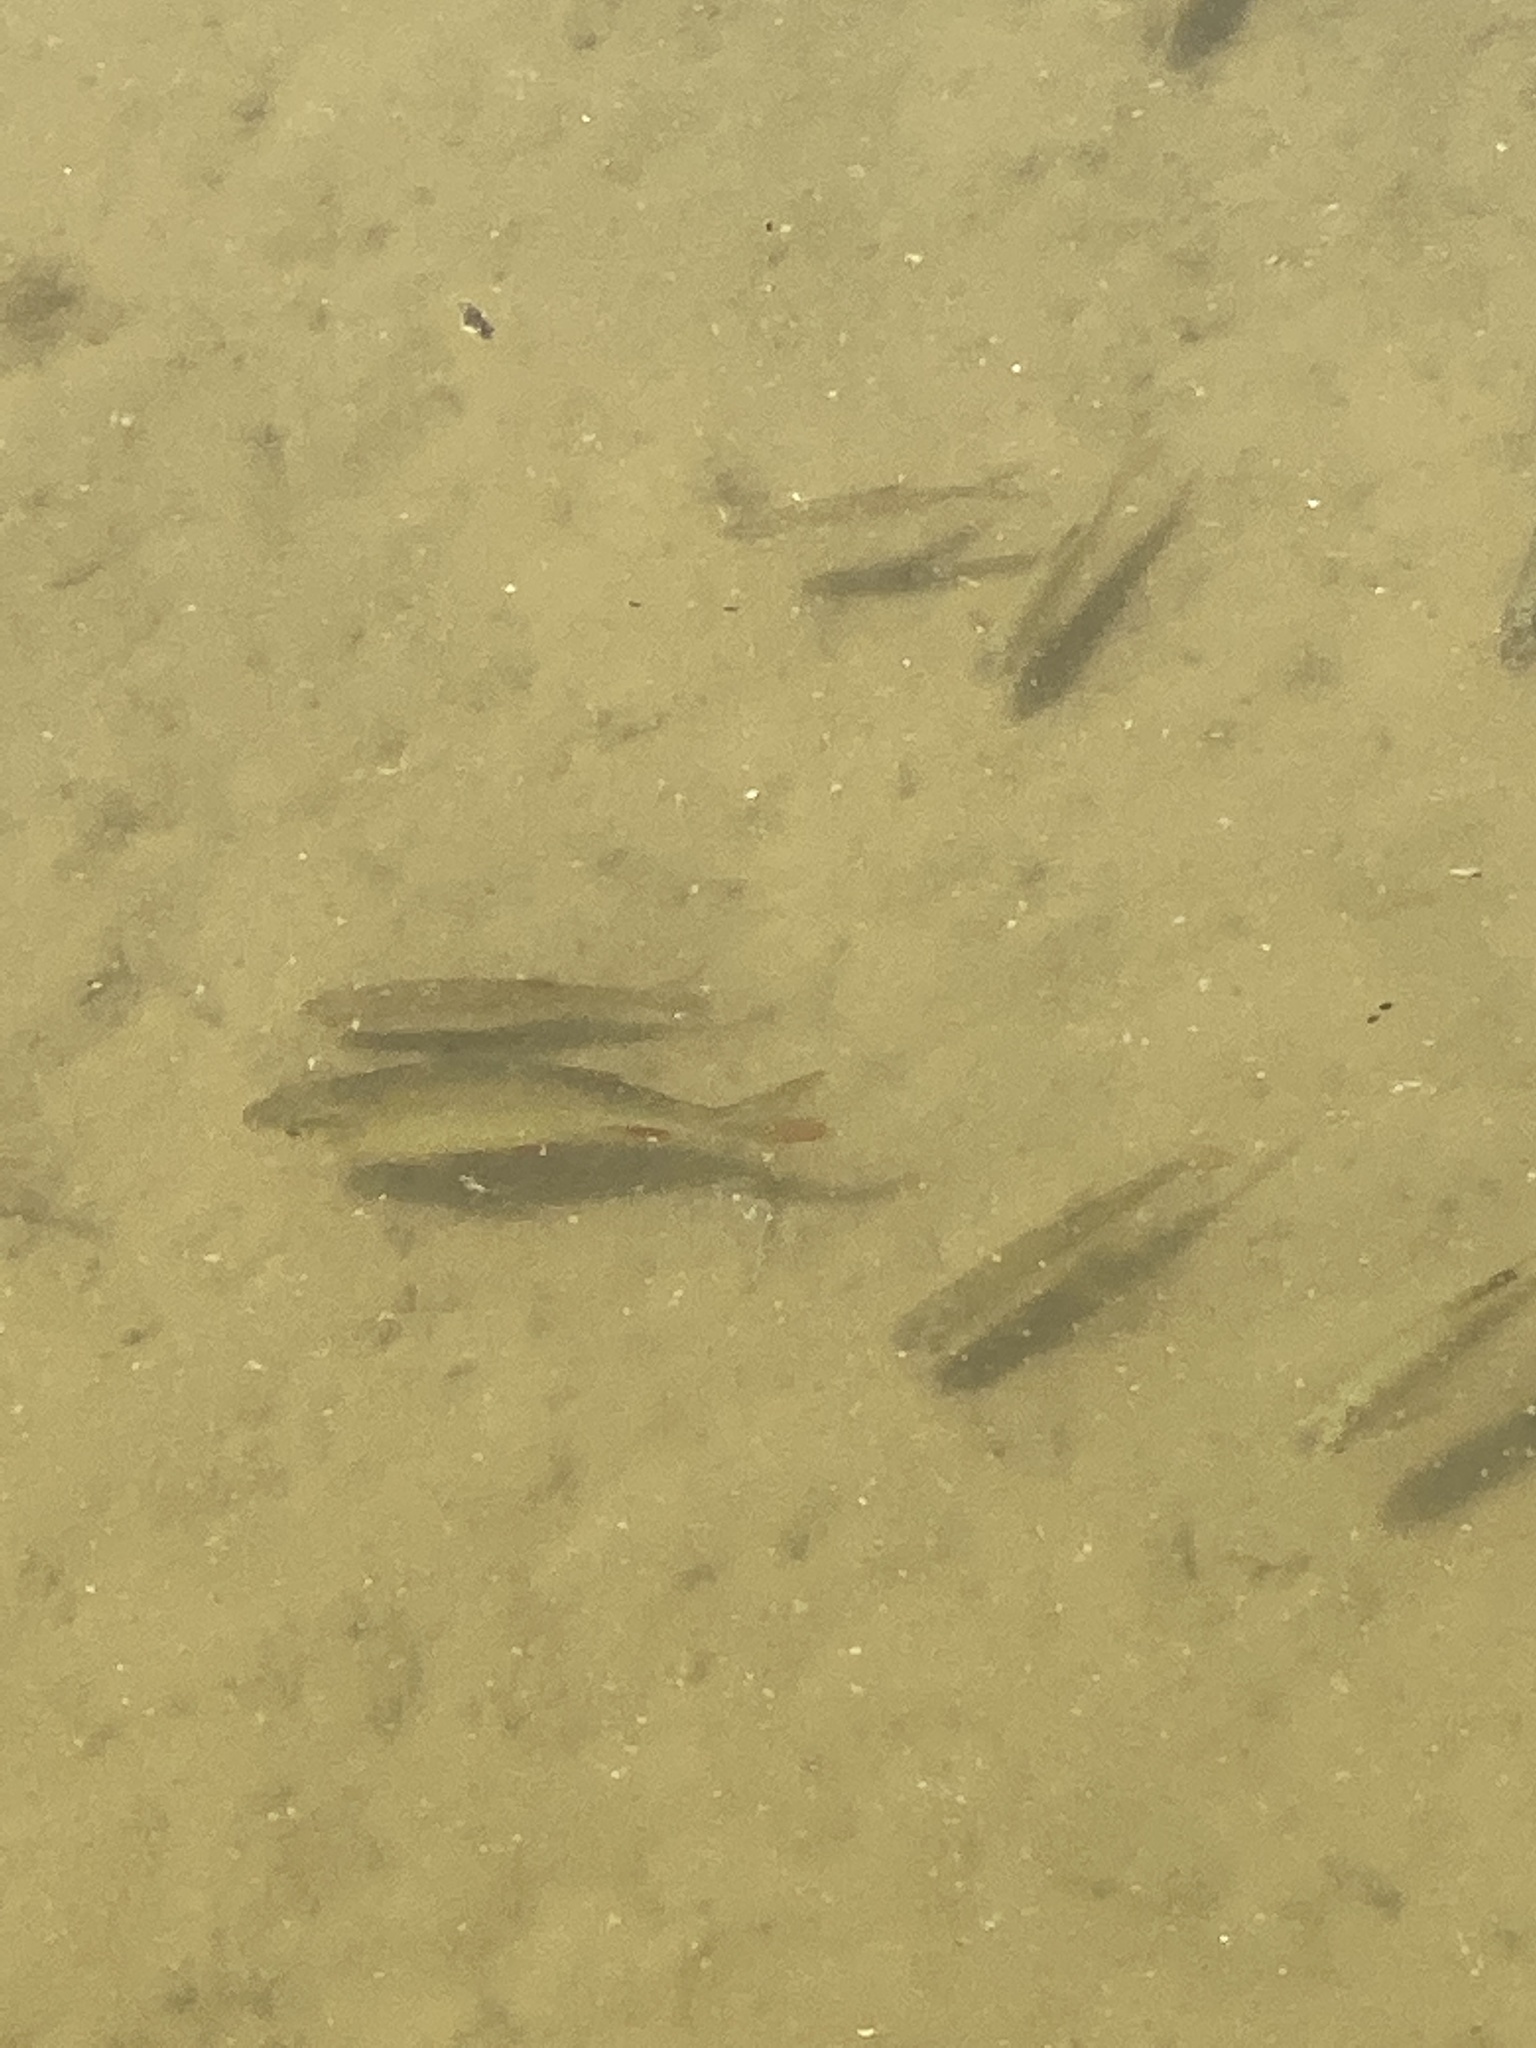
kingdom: Animalia
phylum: Chordata
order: Cypriniformes
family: Cyprinidae
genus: Scardinius
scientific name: Scardinius erythrophthalmus
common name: Rudd
